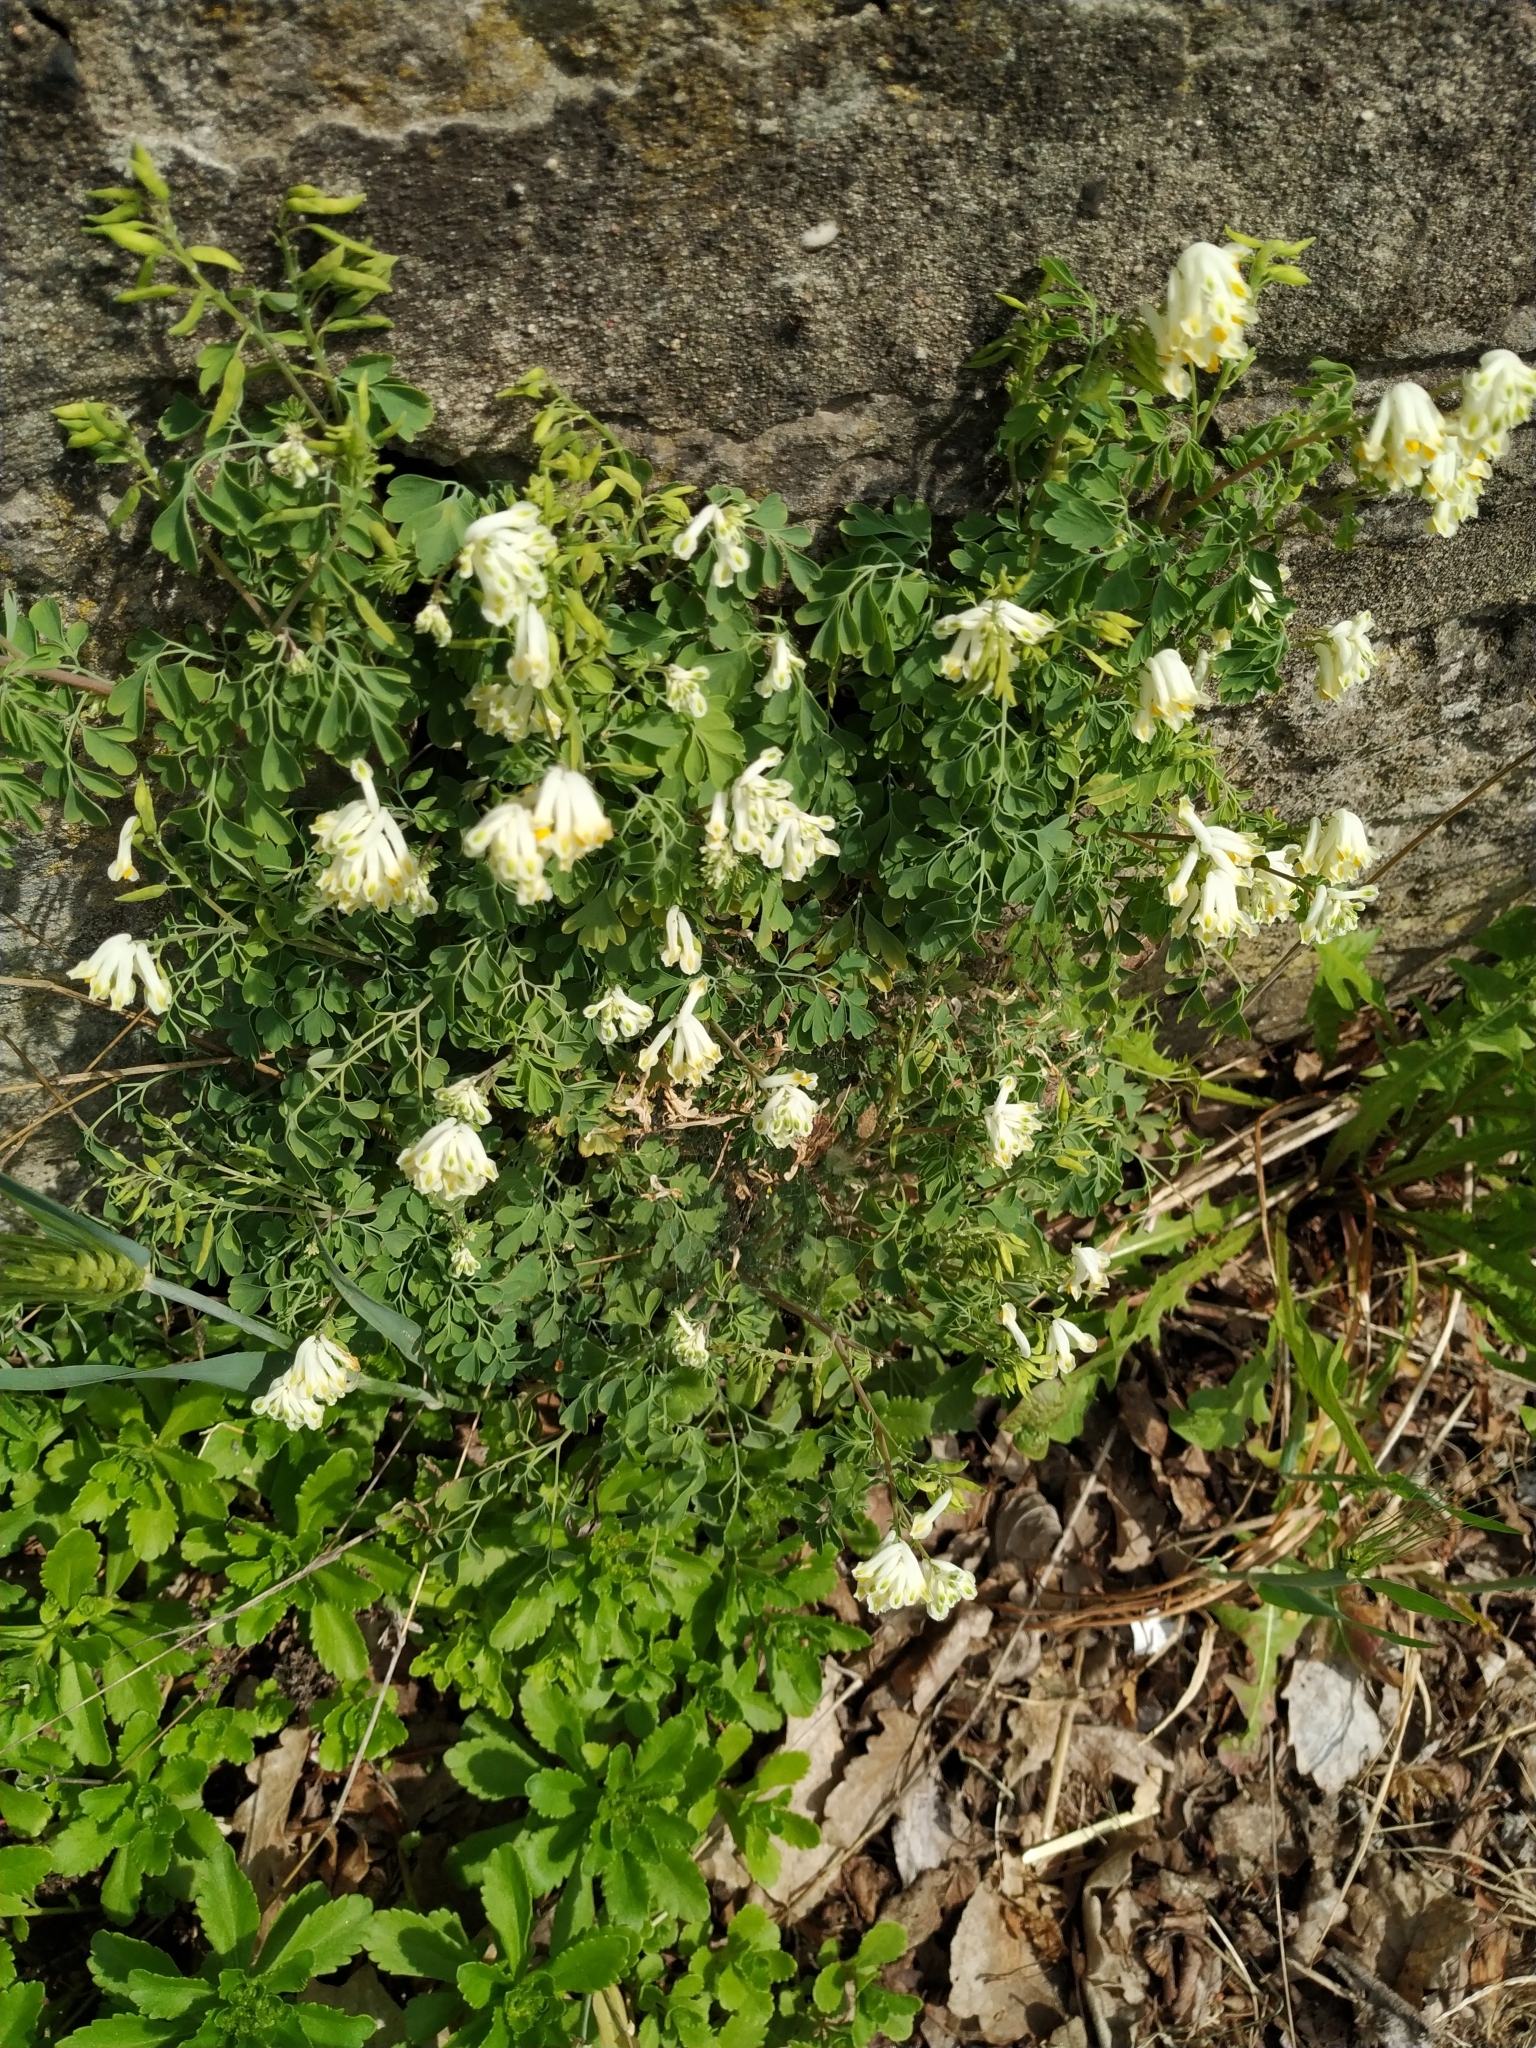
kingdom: Plantae
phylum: Tracheophyta
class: Magnoliopsida
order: Ranunculales
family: Papaveraceae
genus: Pseudofumaria
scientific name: Pseudofumaria alba
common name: Pale corydalis
